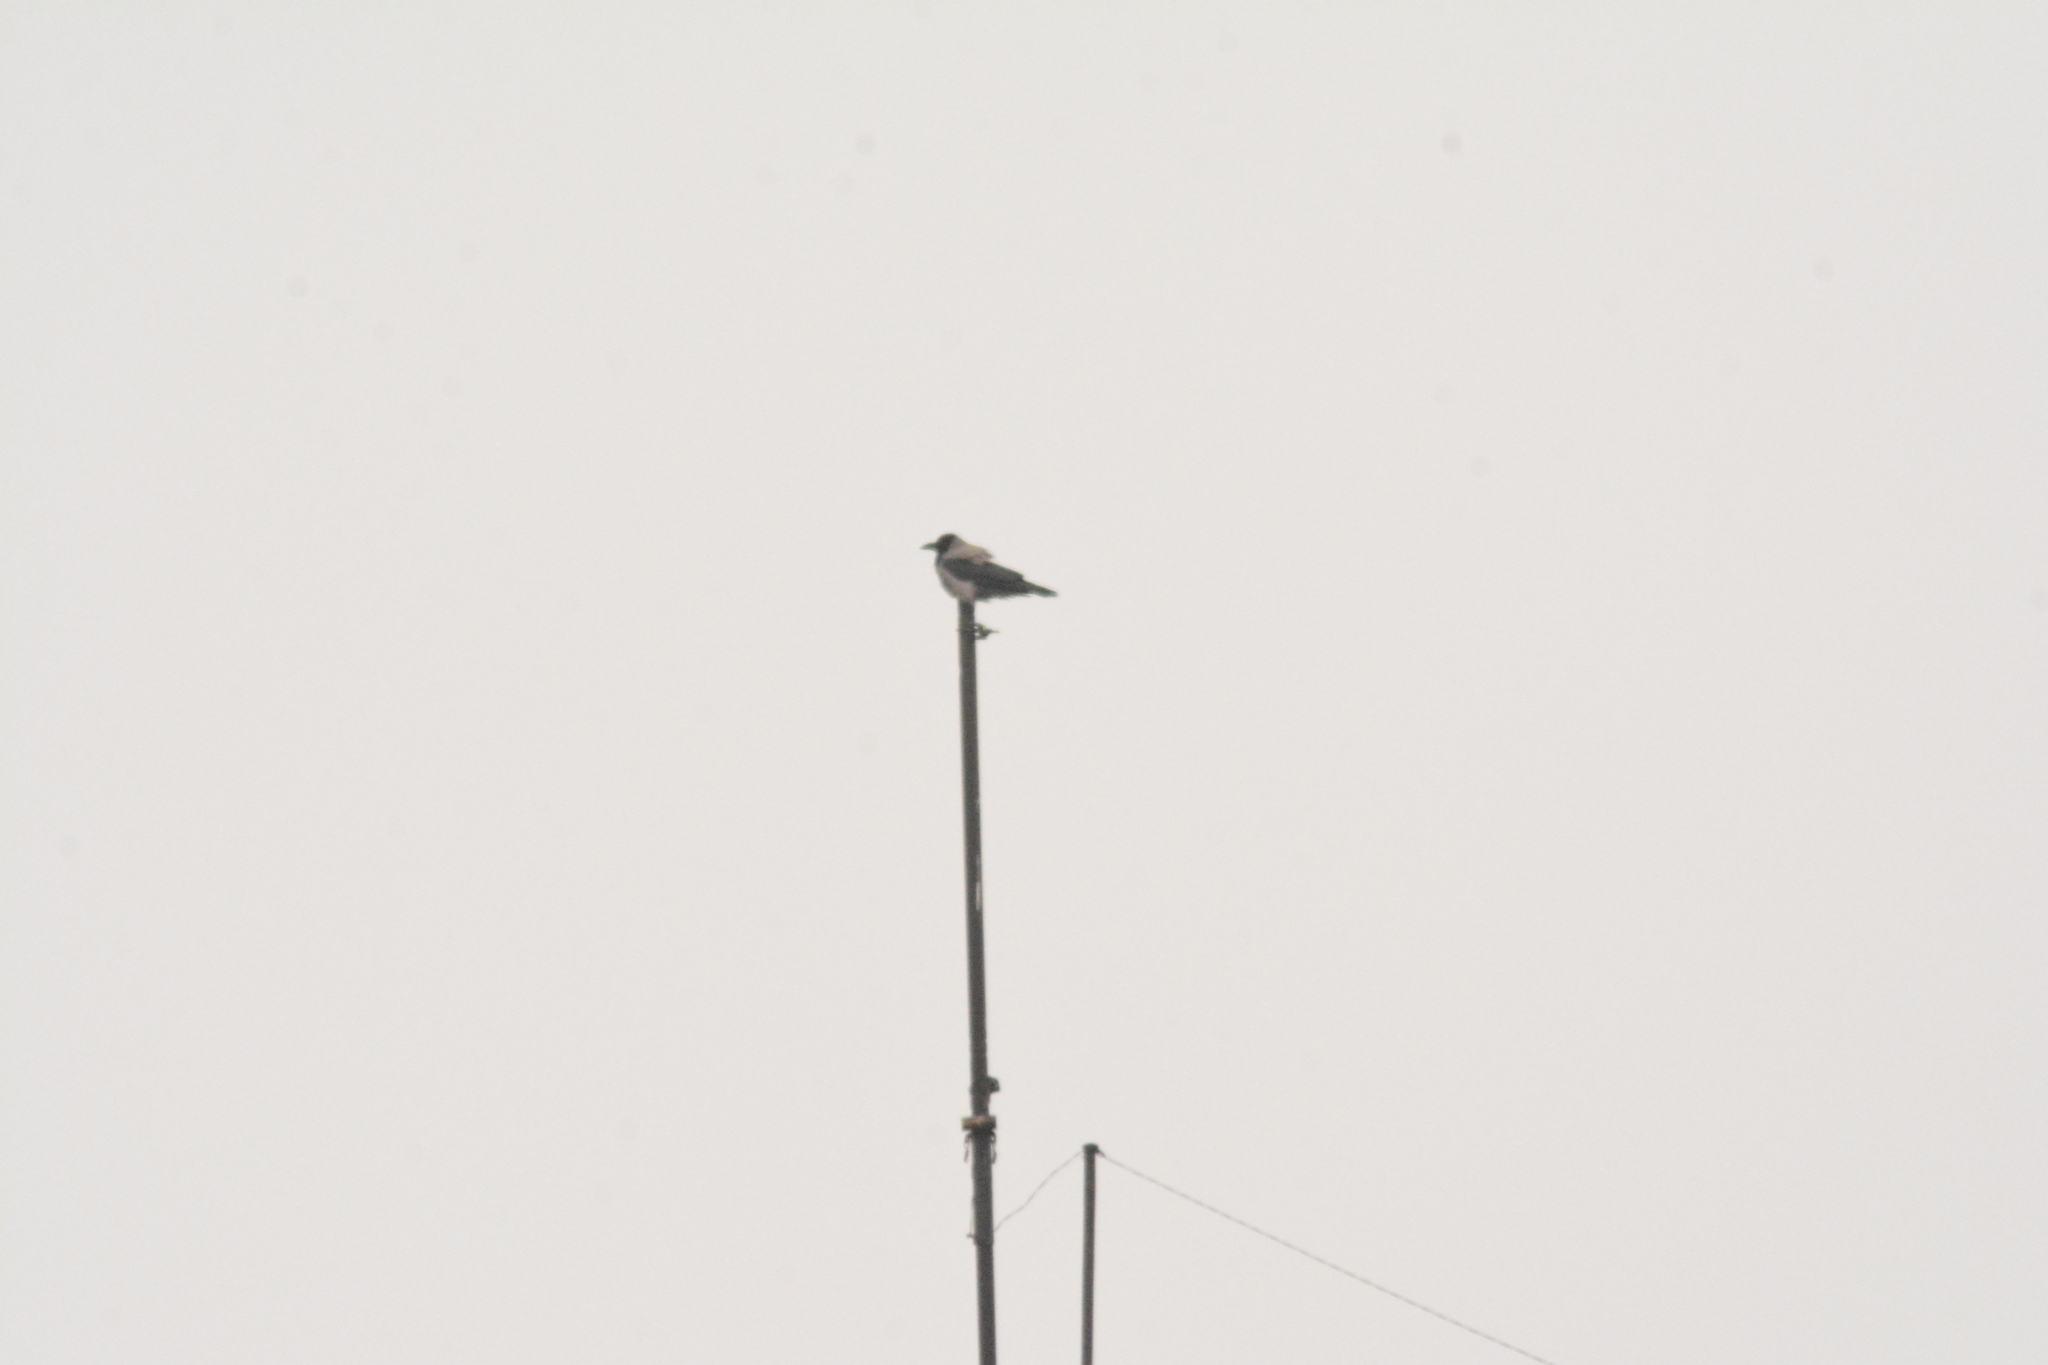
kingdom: Animalia
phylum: Chordata
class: Aves
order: Passeriformes
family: Corvidae
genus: Corvus
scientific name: Corvus cornix
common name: Hooded crow
